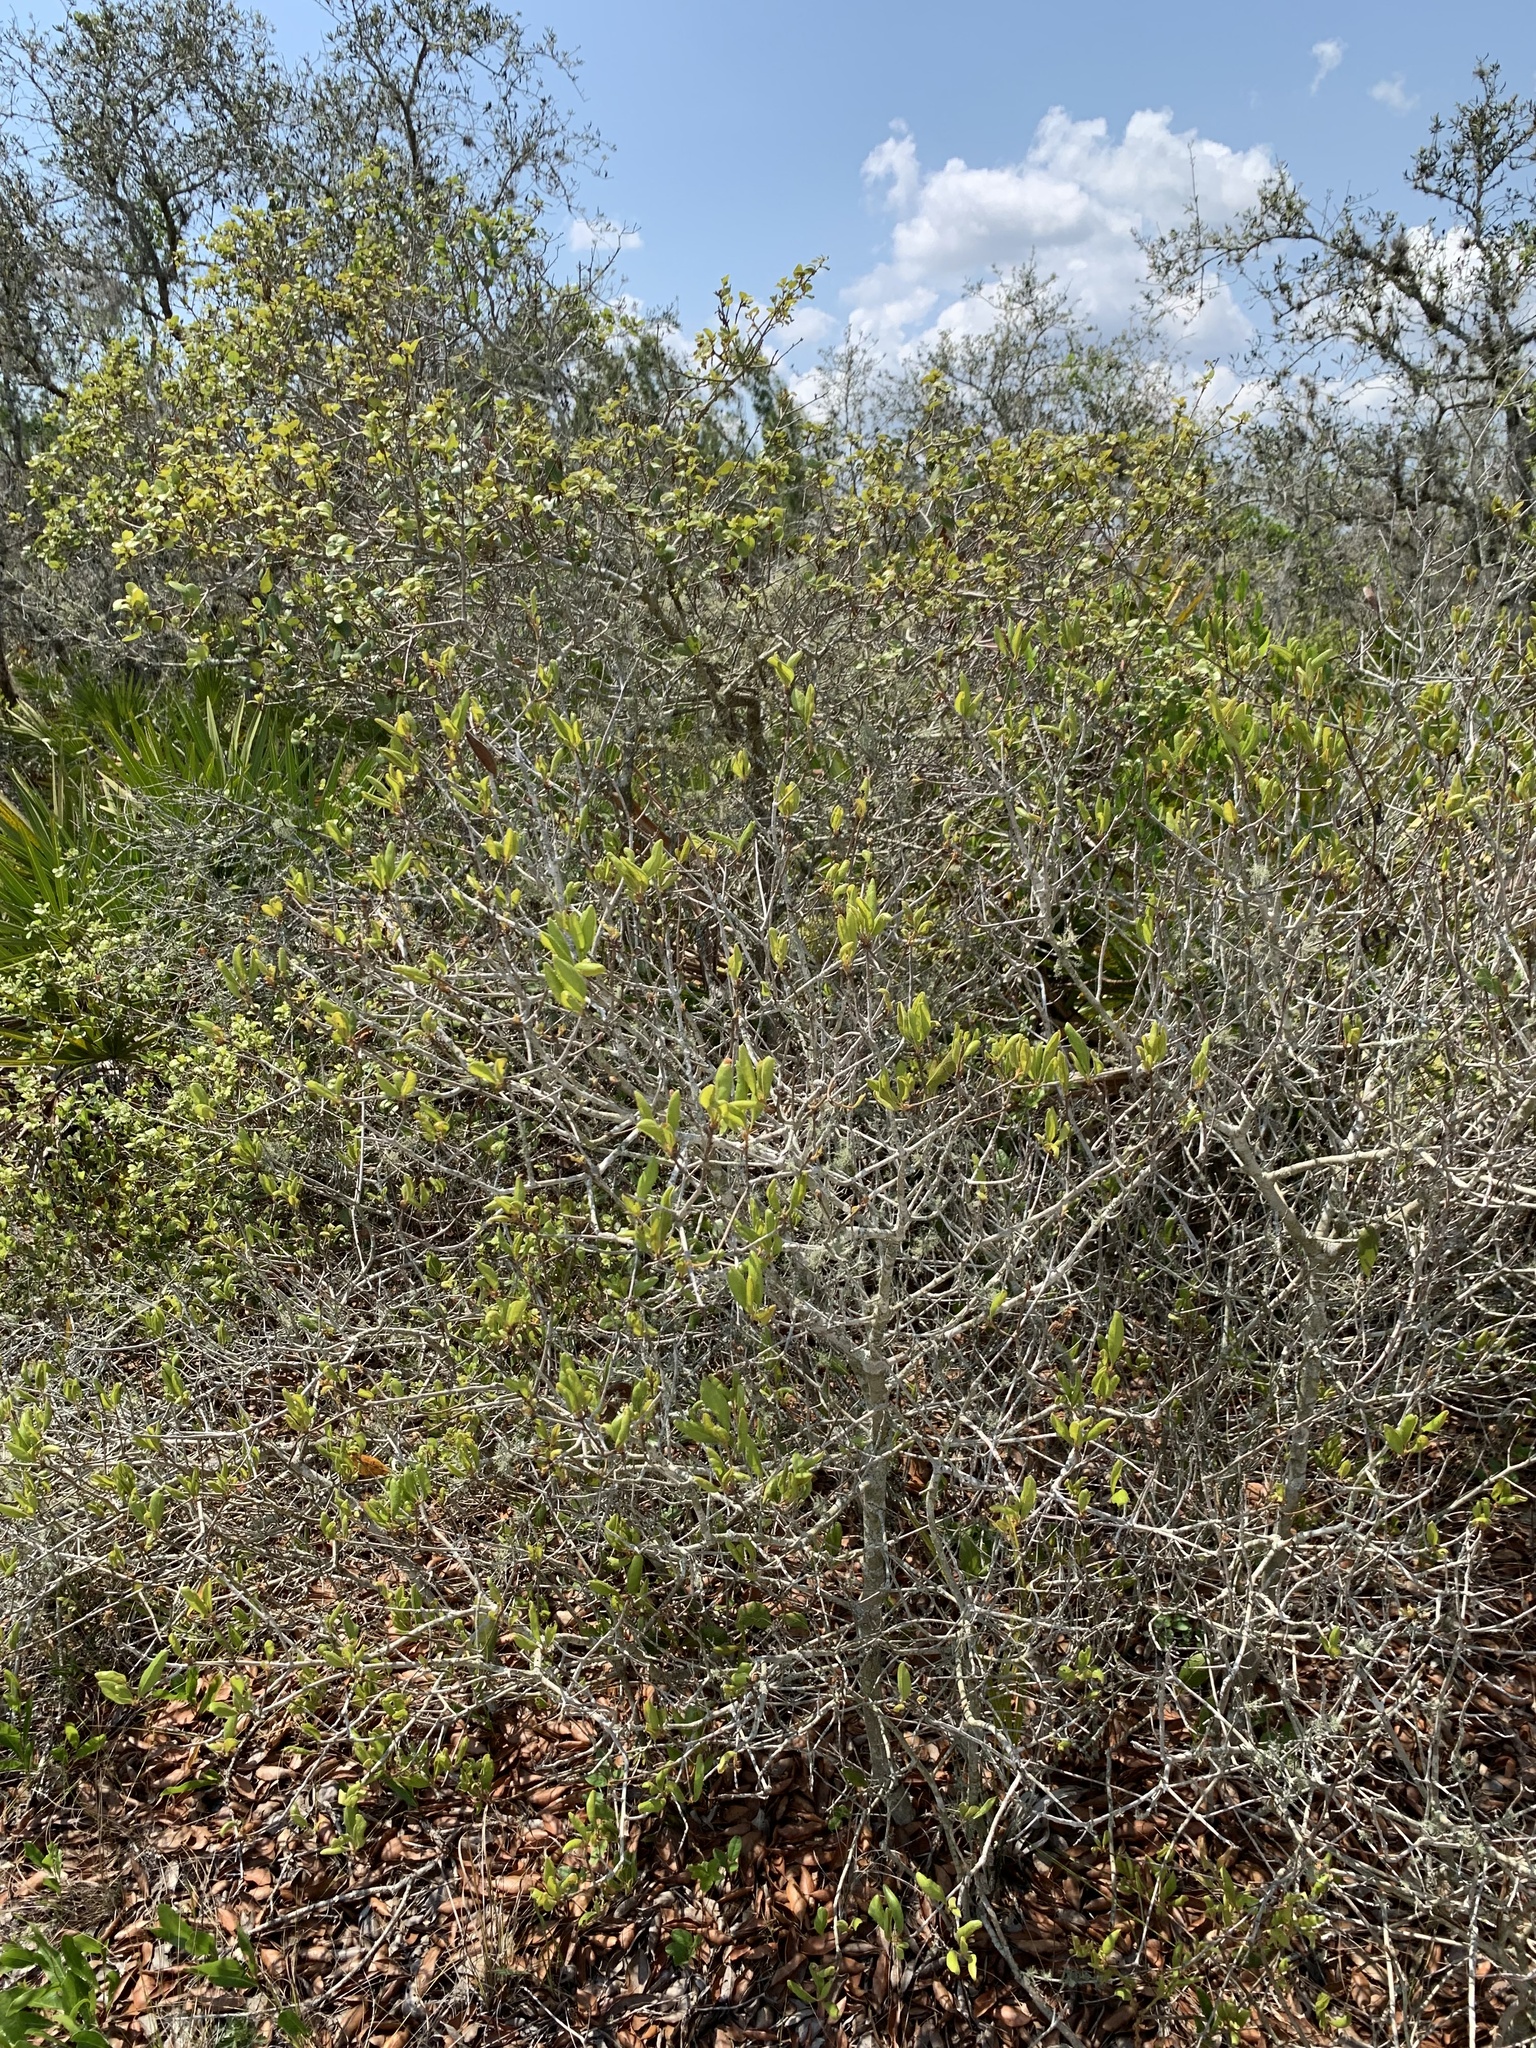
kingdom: Plantae
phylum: Tracheophyta
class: Magnoliopsida
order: Fagales
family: Fagaceae
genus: Quercus
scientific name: Quercus myrtifolia
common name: Myrtle oak
